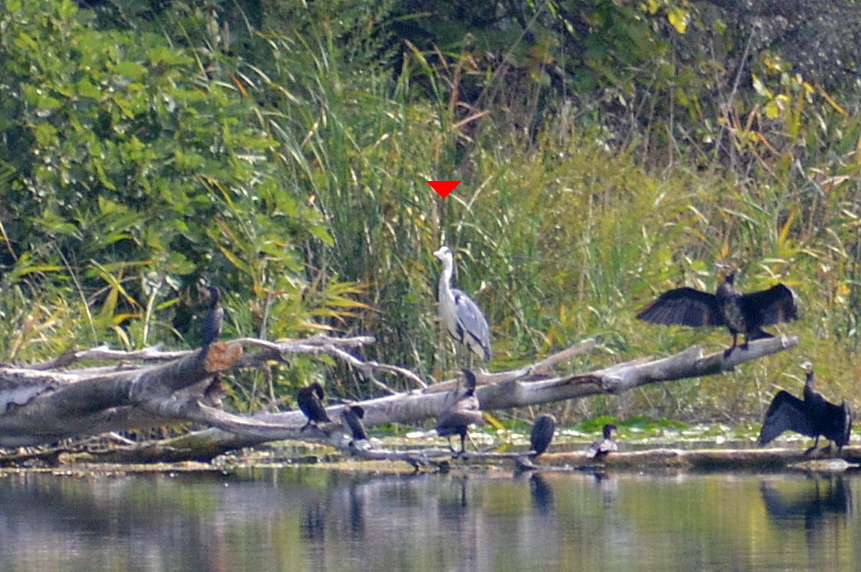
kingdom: Animalia
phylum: Chordata
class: Aves
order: Pelecaniformes
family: Ardeidae
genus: Ardea
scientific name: Ardea cinerea
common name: Grey heron
